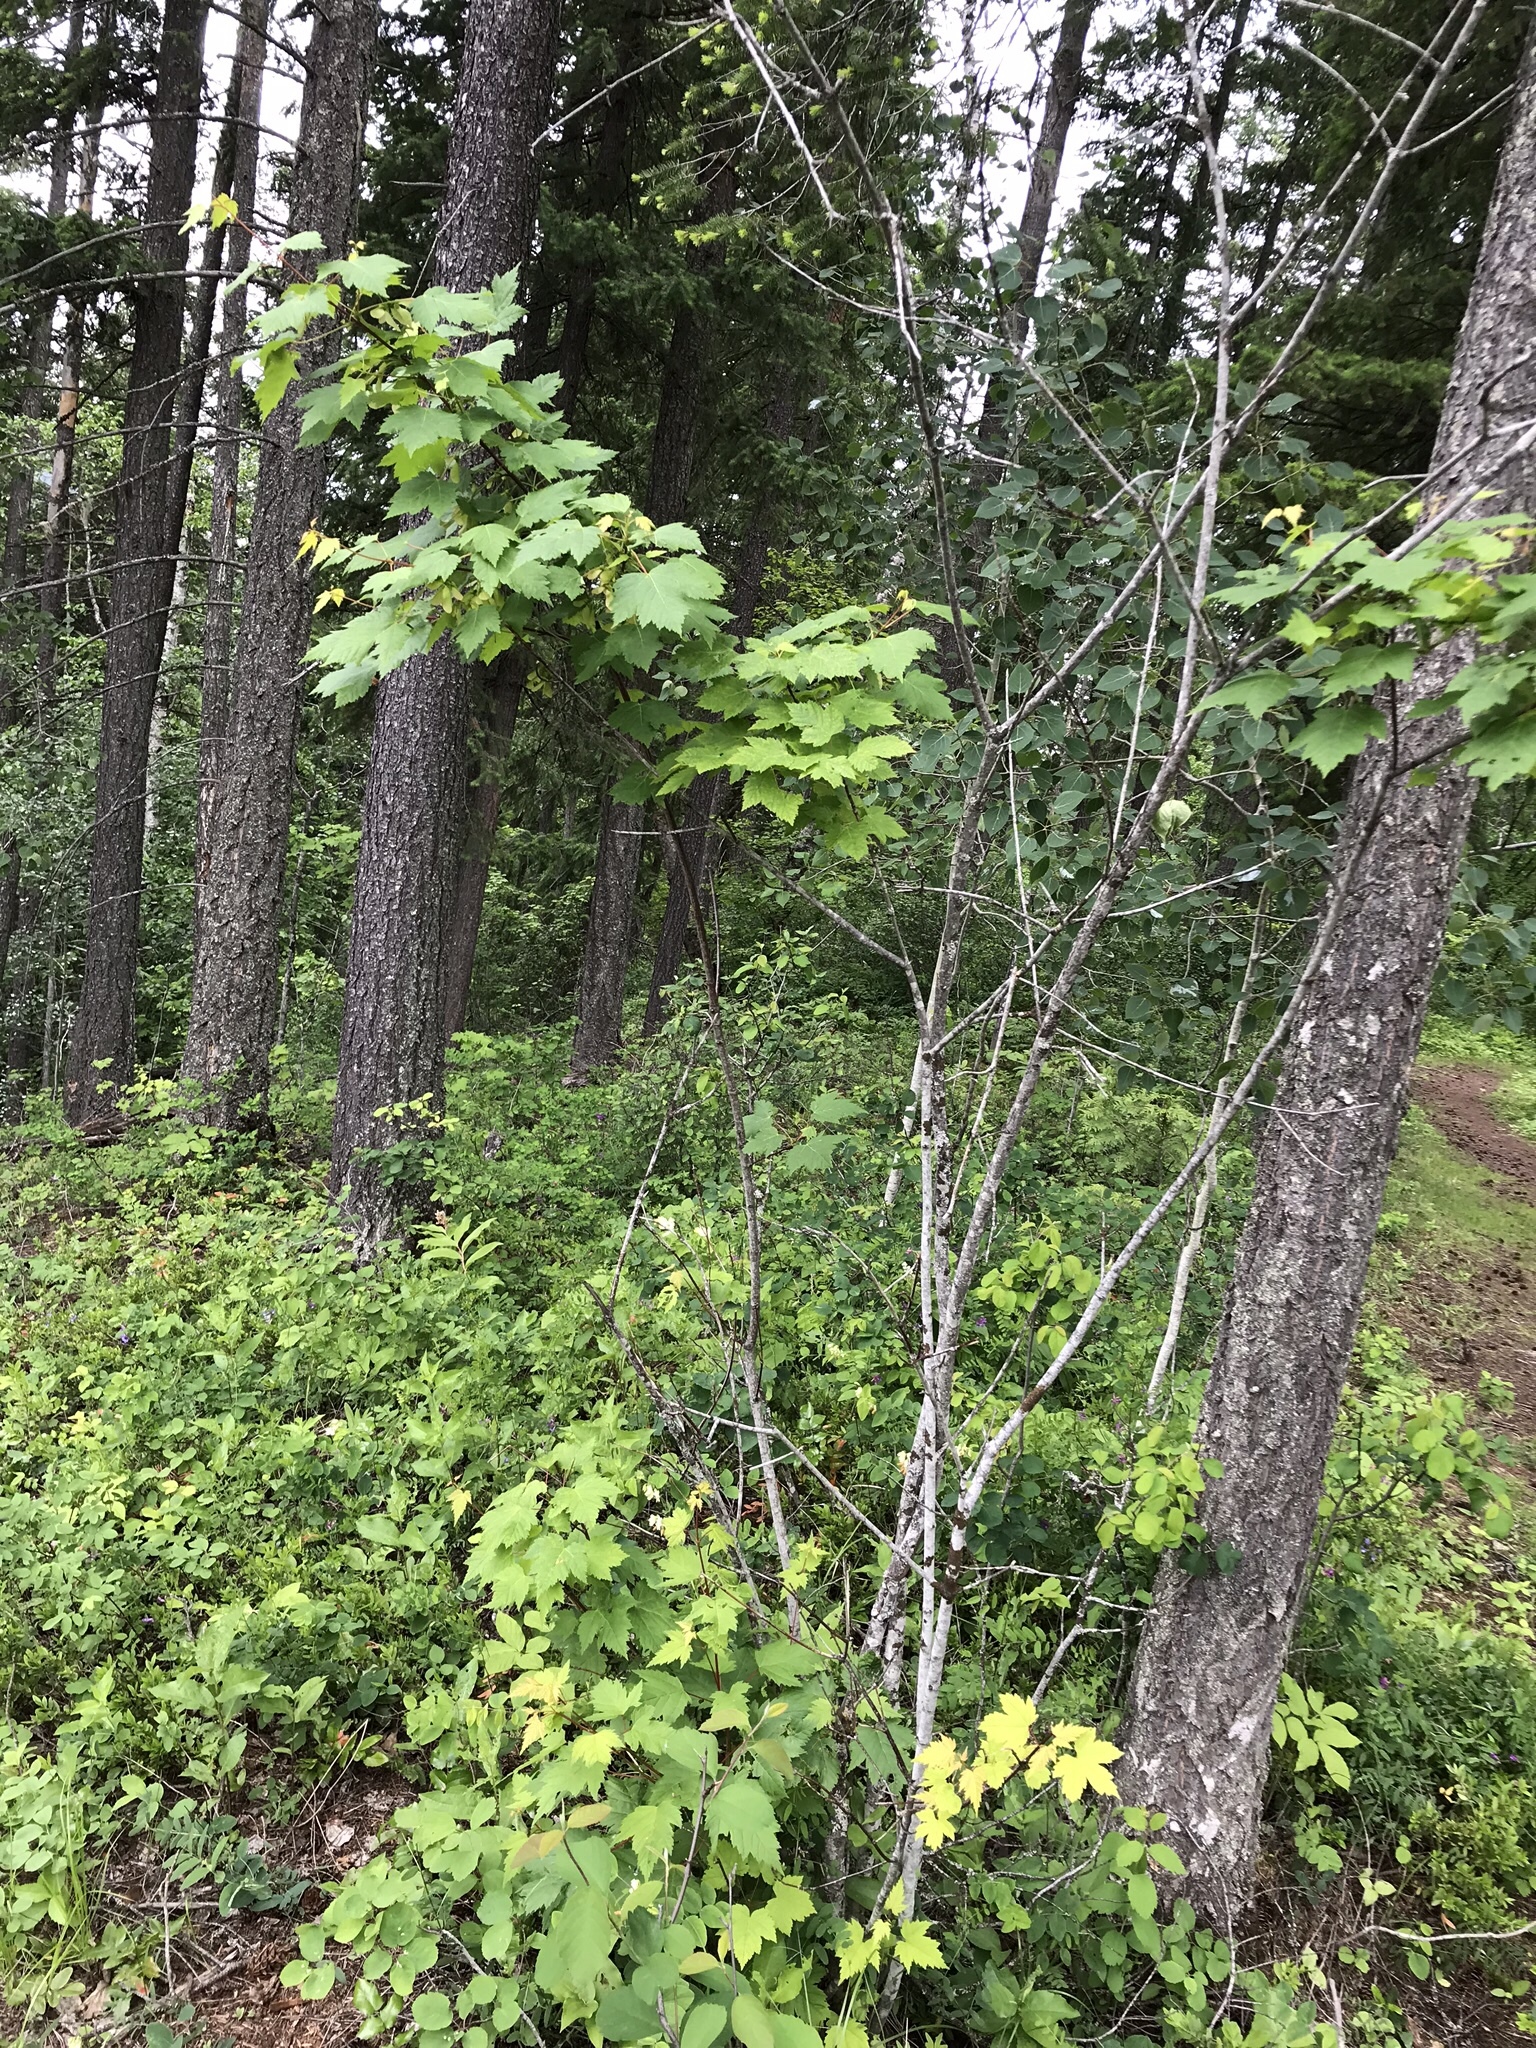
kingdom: Plantae
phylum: Tracheophyta
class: Magnoliopsida
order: Sapindales
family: Sapindaceae
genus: Acer
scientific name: Acer glabrum
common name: Rocky mountain maple
